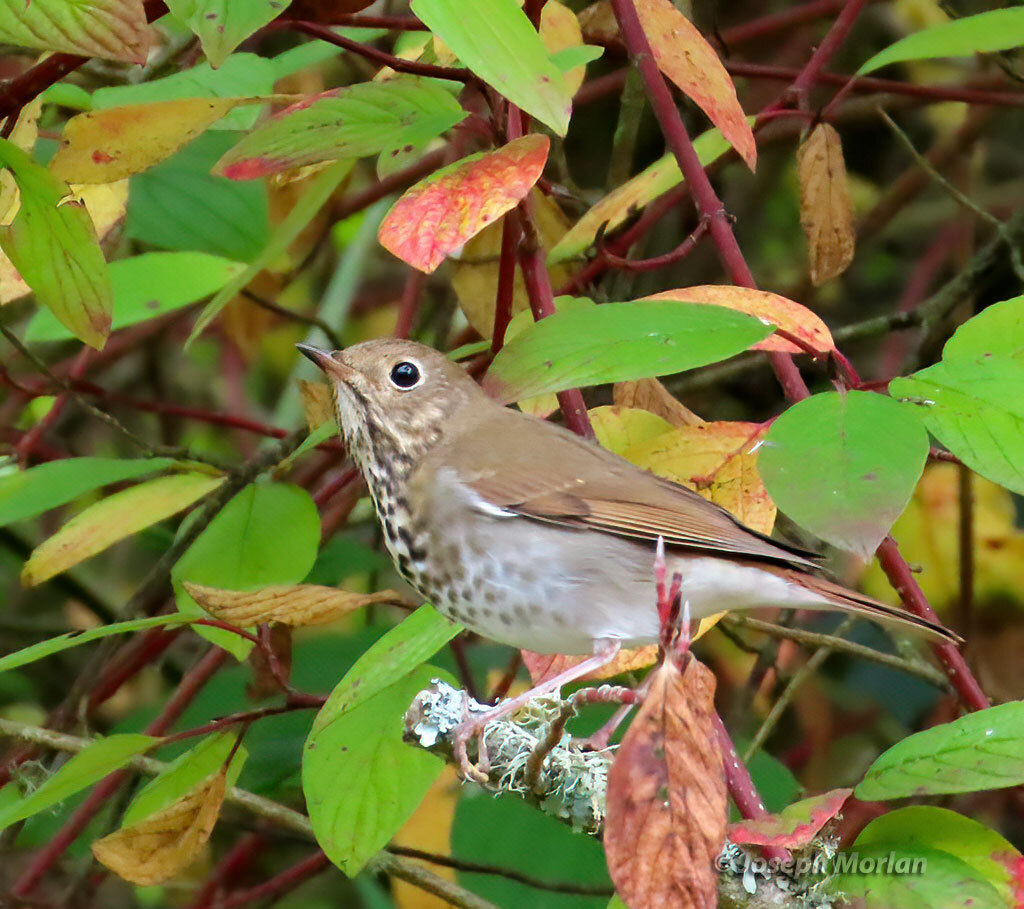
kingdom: Animalia
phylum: Chordata
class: Aves
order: Passeriformes
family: Turdidae
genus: Catharus
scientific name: Catharus guttatus
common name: Hermit thrush
